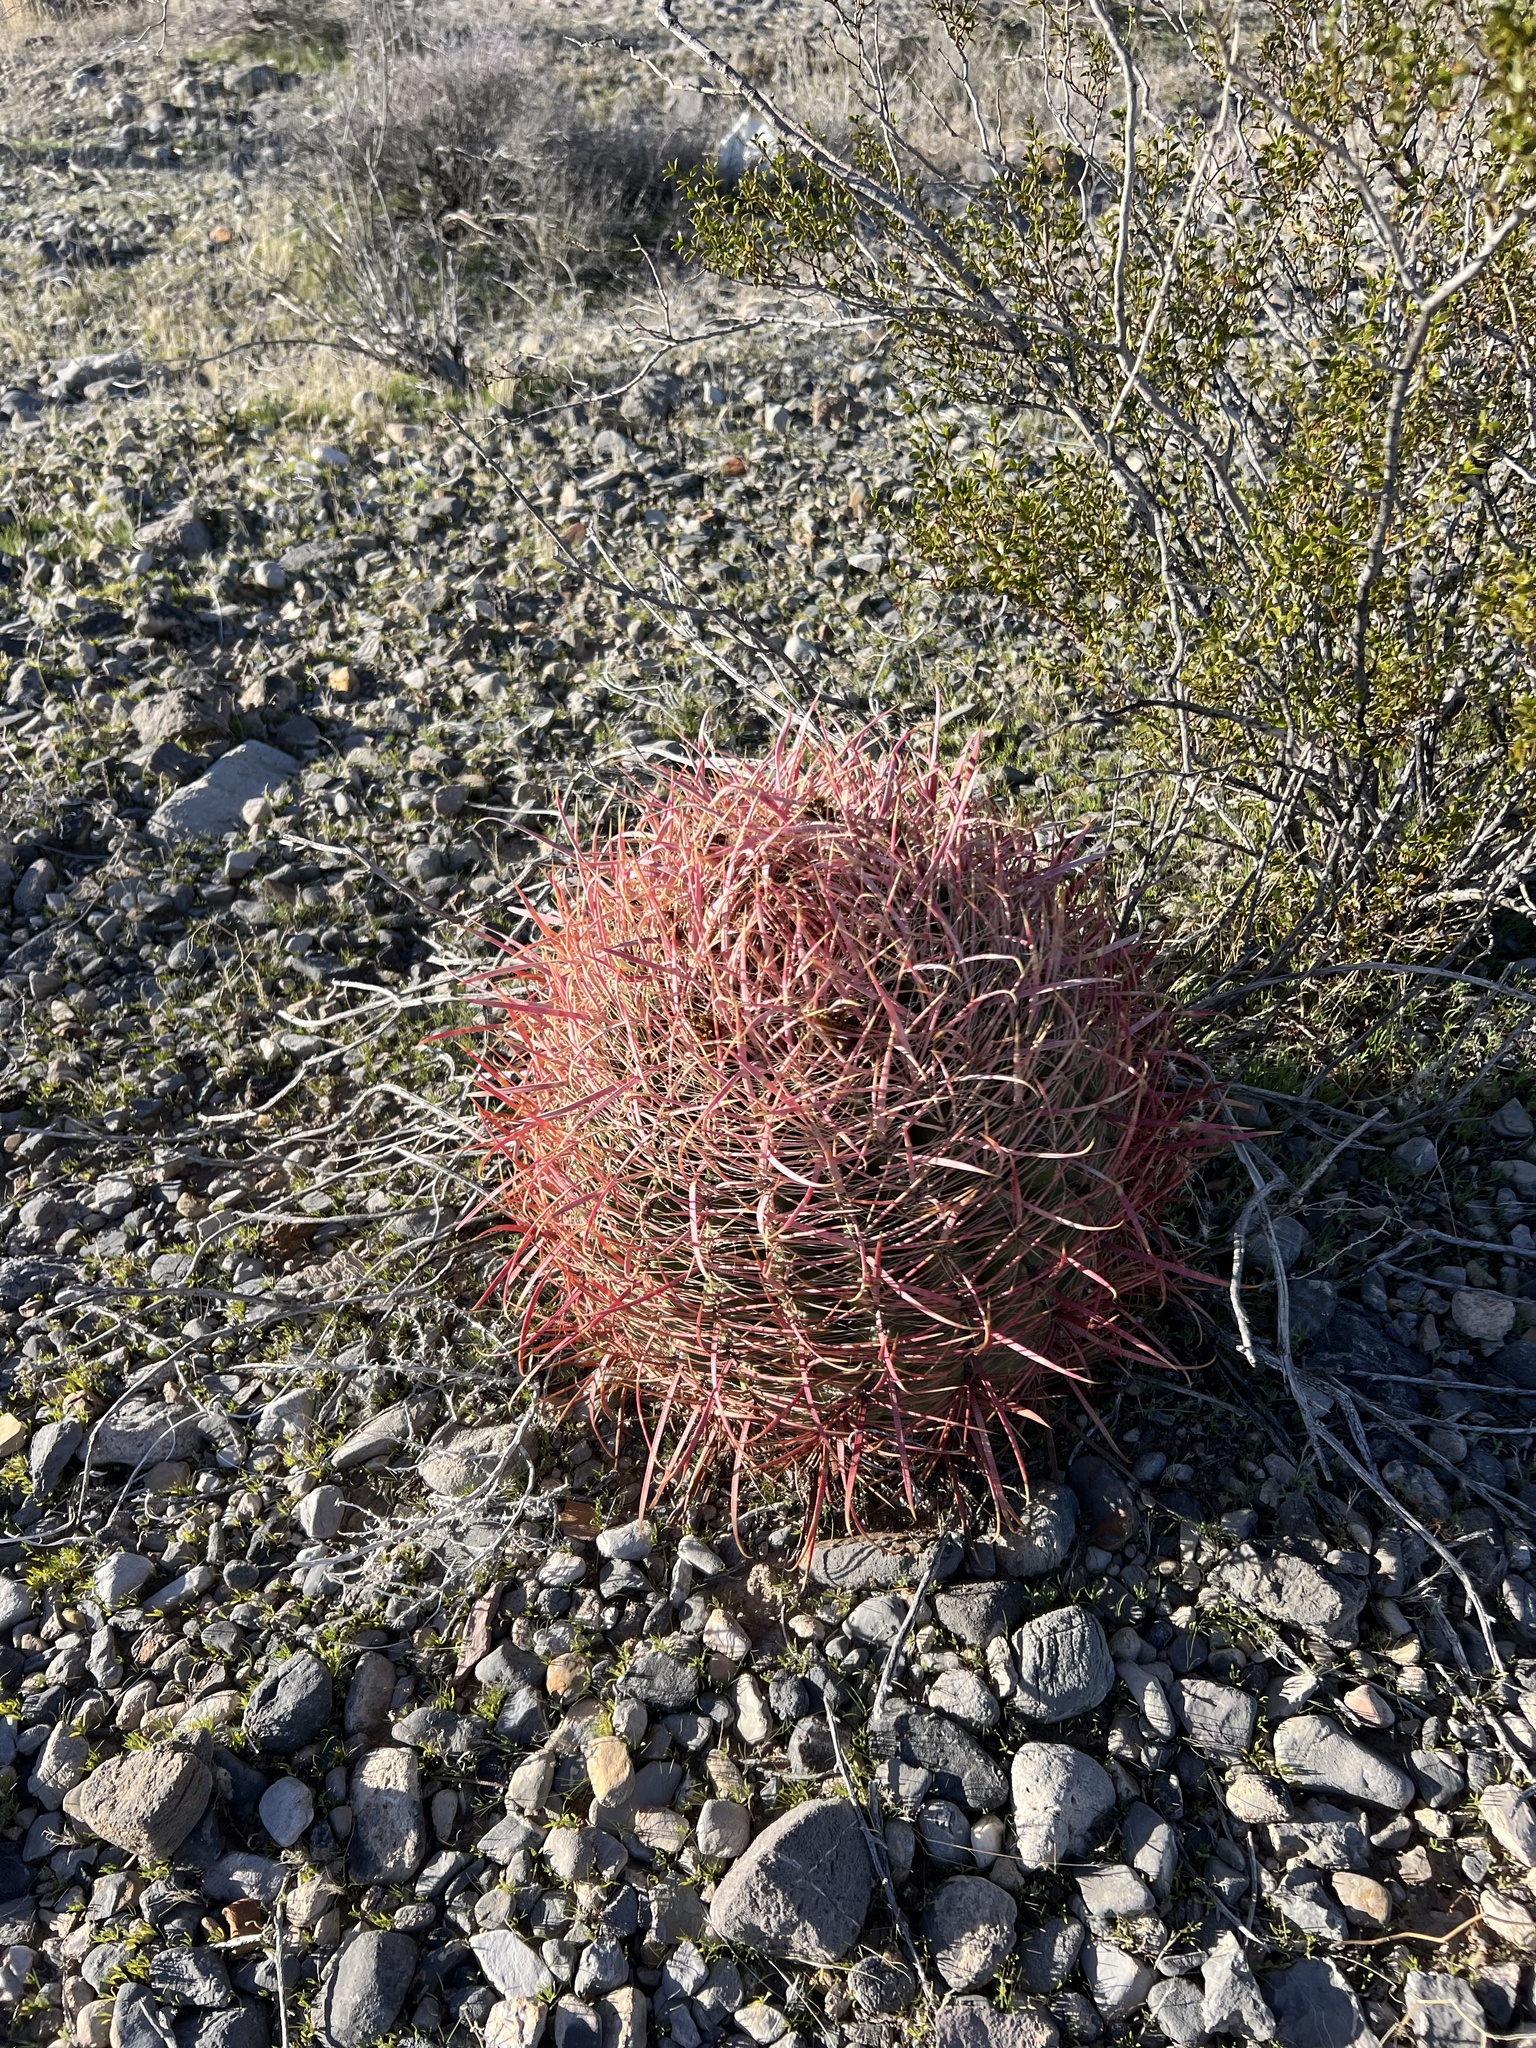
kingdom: Plantae
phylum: Tracheophyta
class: Magnoliopsida
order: Caryophyllales
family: Cactaceae
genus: Ferocactus
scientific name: Ferocactus cylindraceus
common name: California barrel cactus
